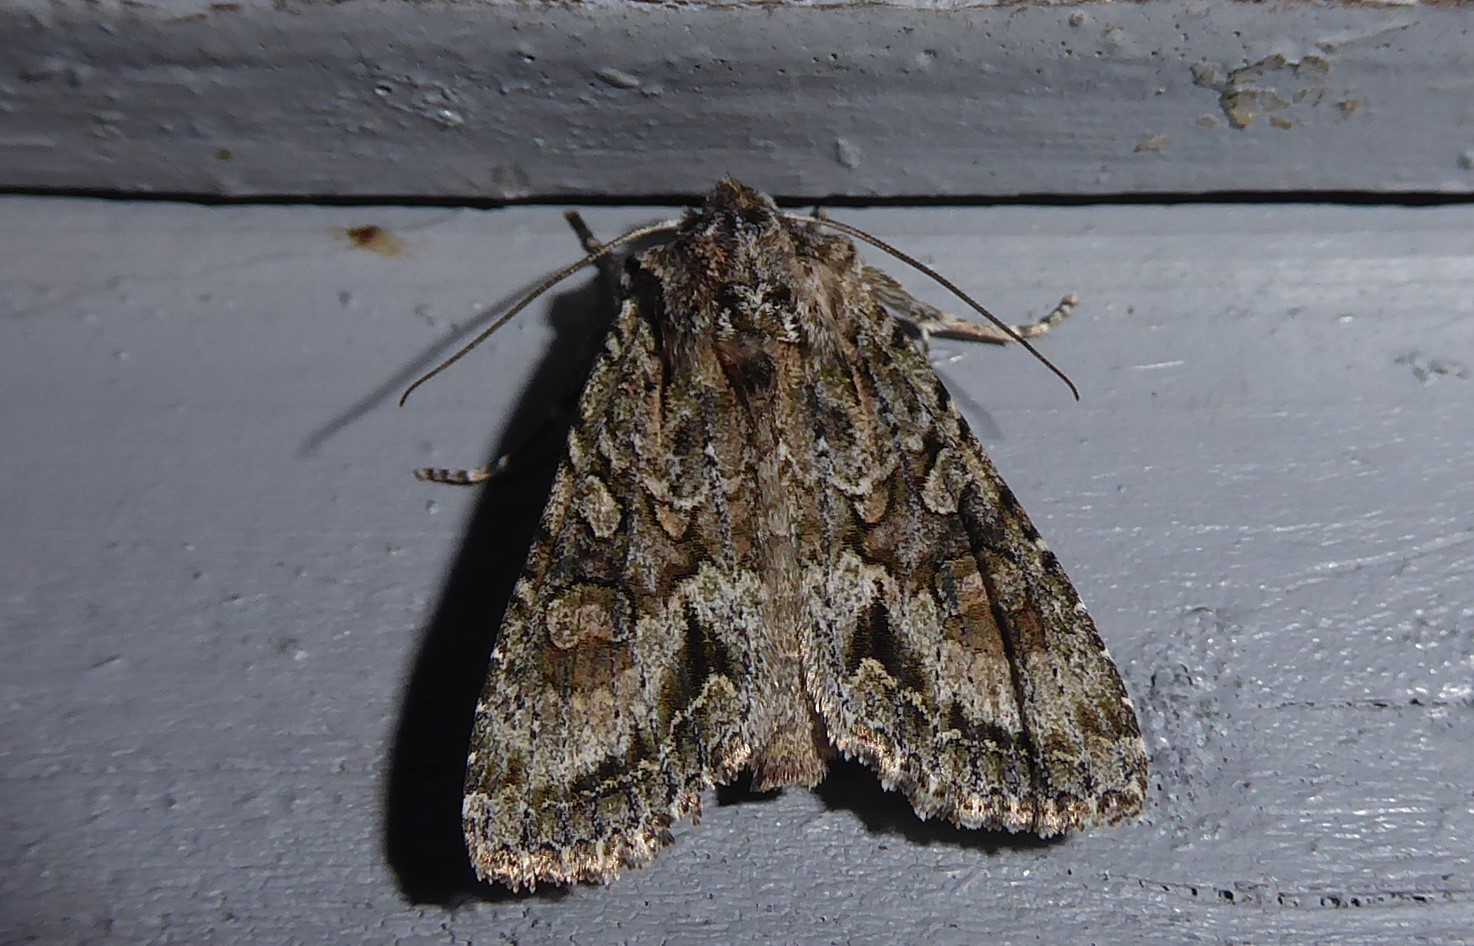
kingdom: Animalia
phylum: Arthropoda
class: Insecta
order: Lepidoptera
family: Noctuidae
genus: Ichneutica
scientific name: Ichneutica mutans
